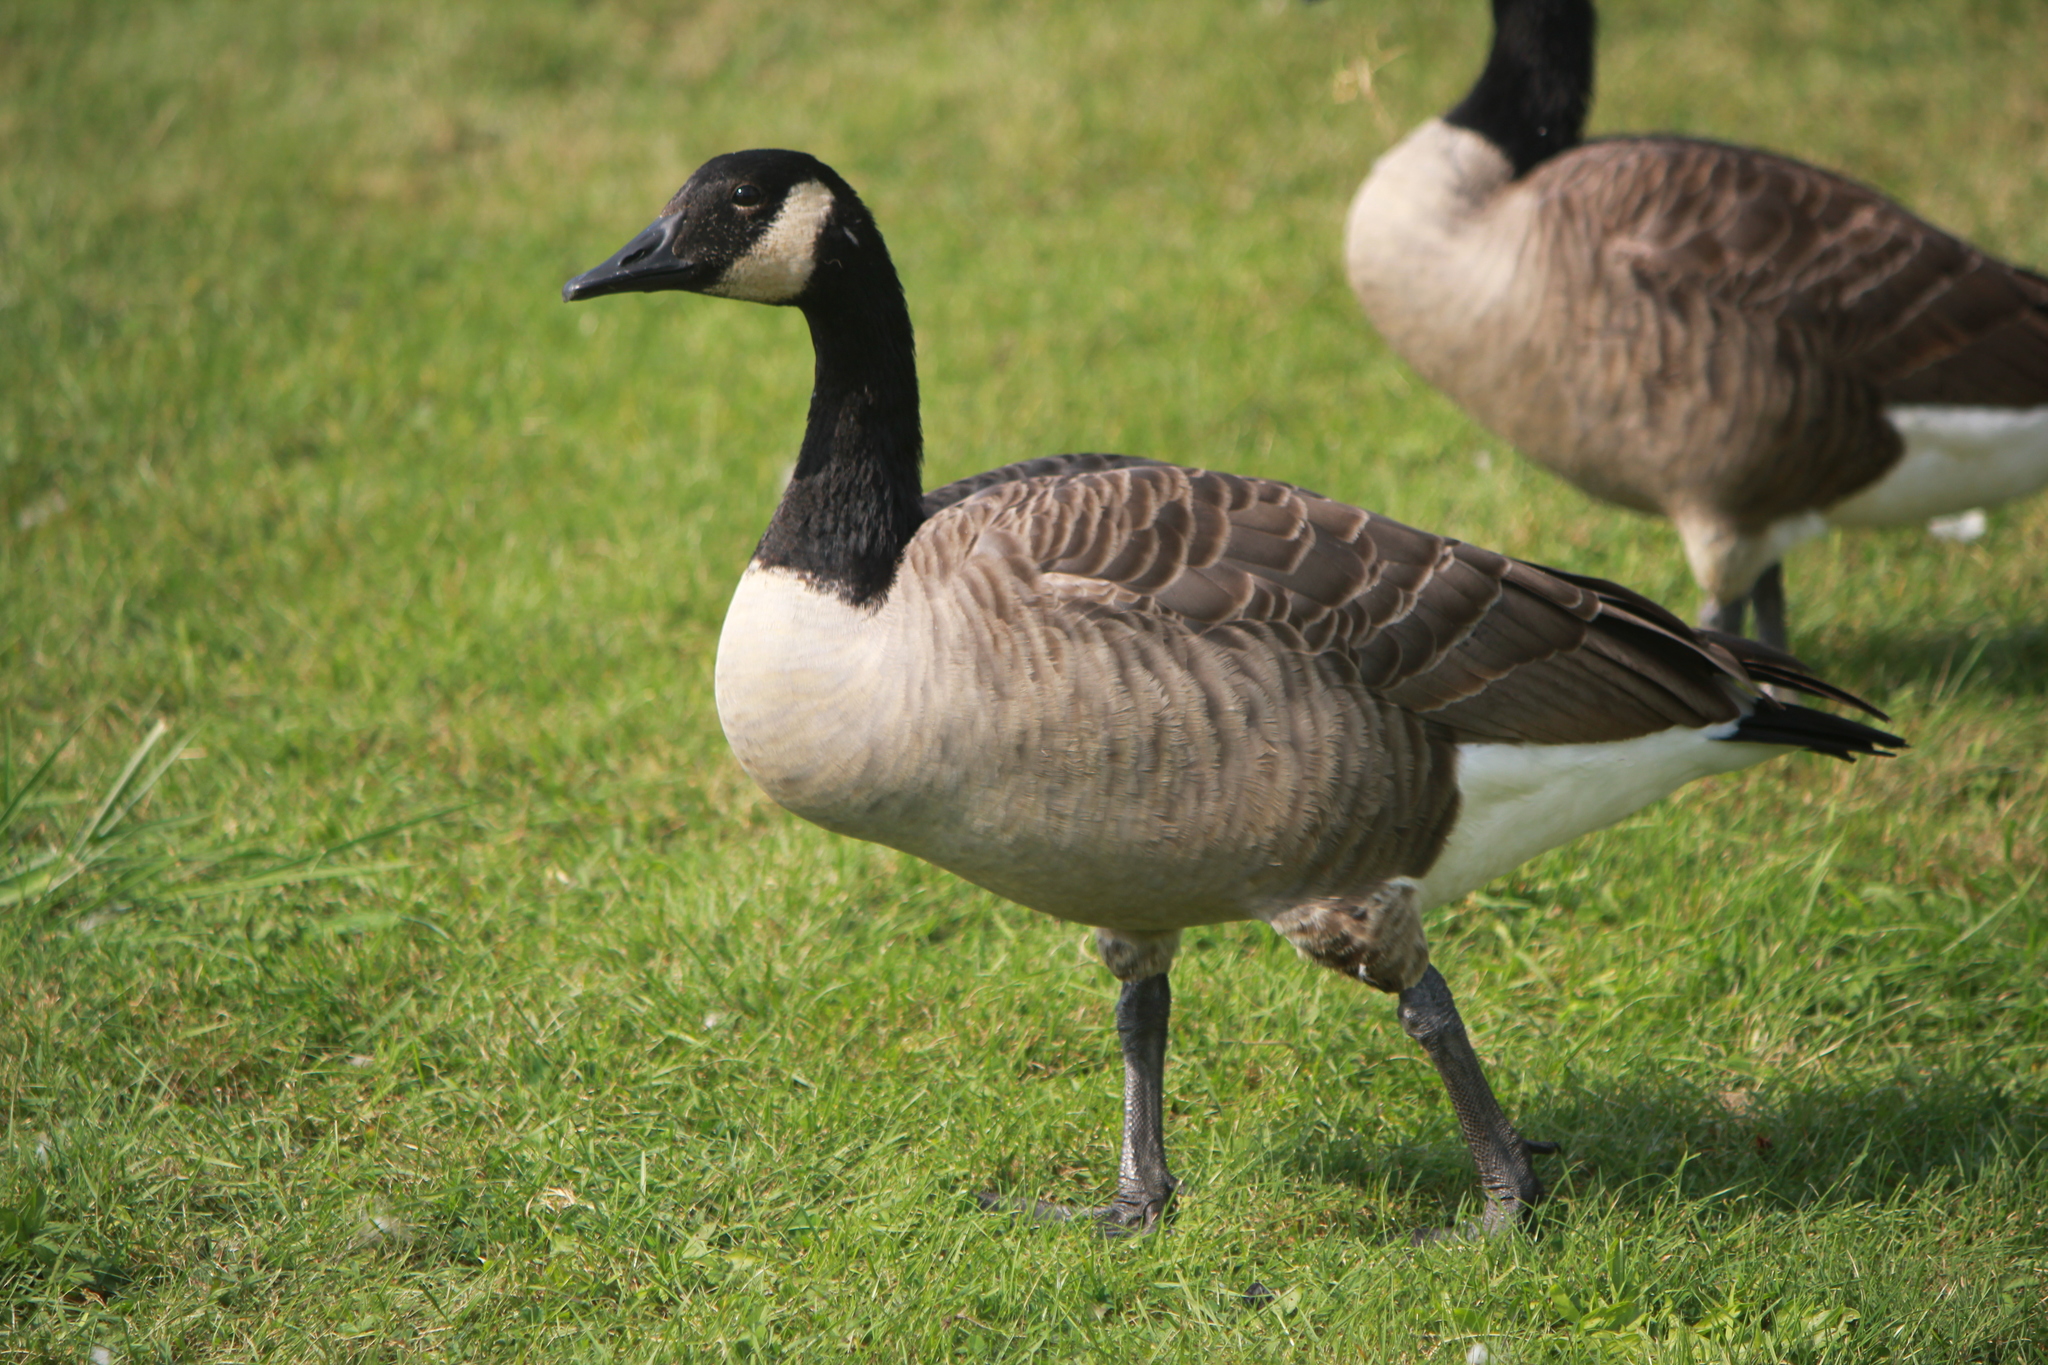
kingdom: Animalia
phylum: Chordata
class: Aves
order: Anseriformes
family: Anatidae
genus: Branta
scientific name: Branta canadensis
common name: Canada goose
